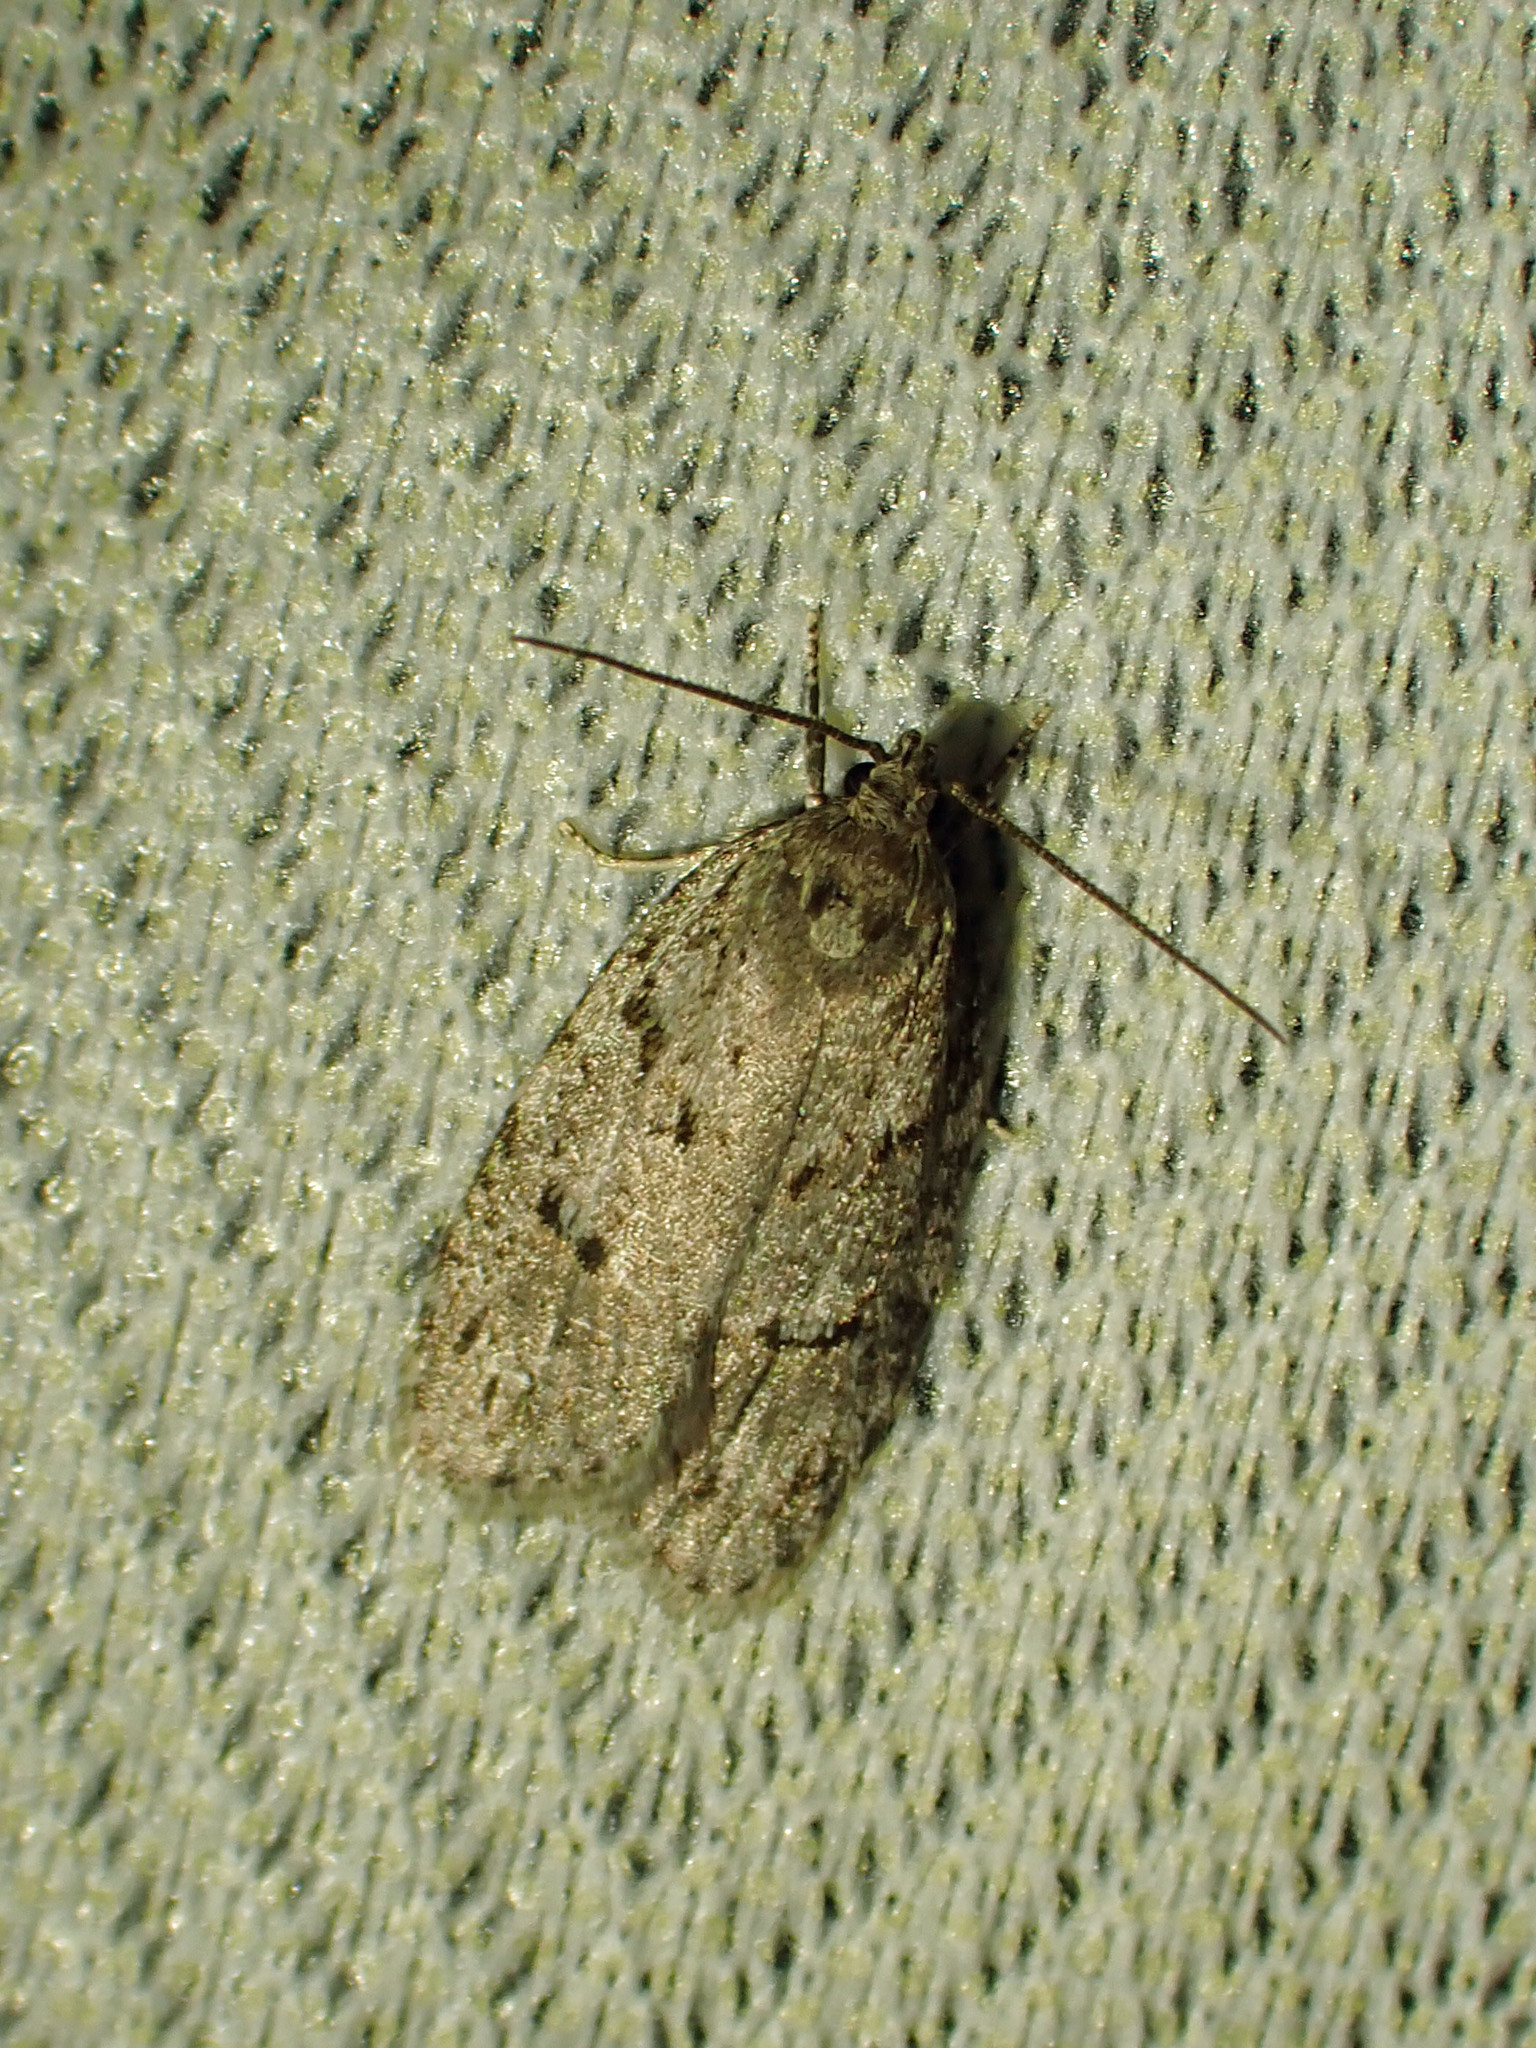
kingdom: Animalia
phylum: Arthropoda
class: Insecta
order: Lepidoptera
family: Depressariidae
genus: Bibarrambla
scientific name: Bibarrambla allenella
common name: Bog bibarrambla moth
